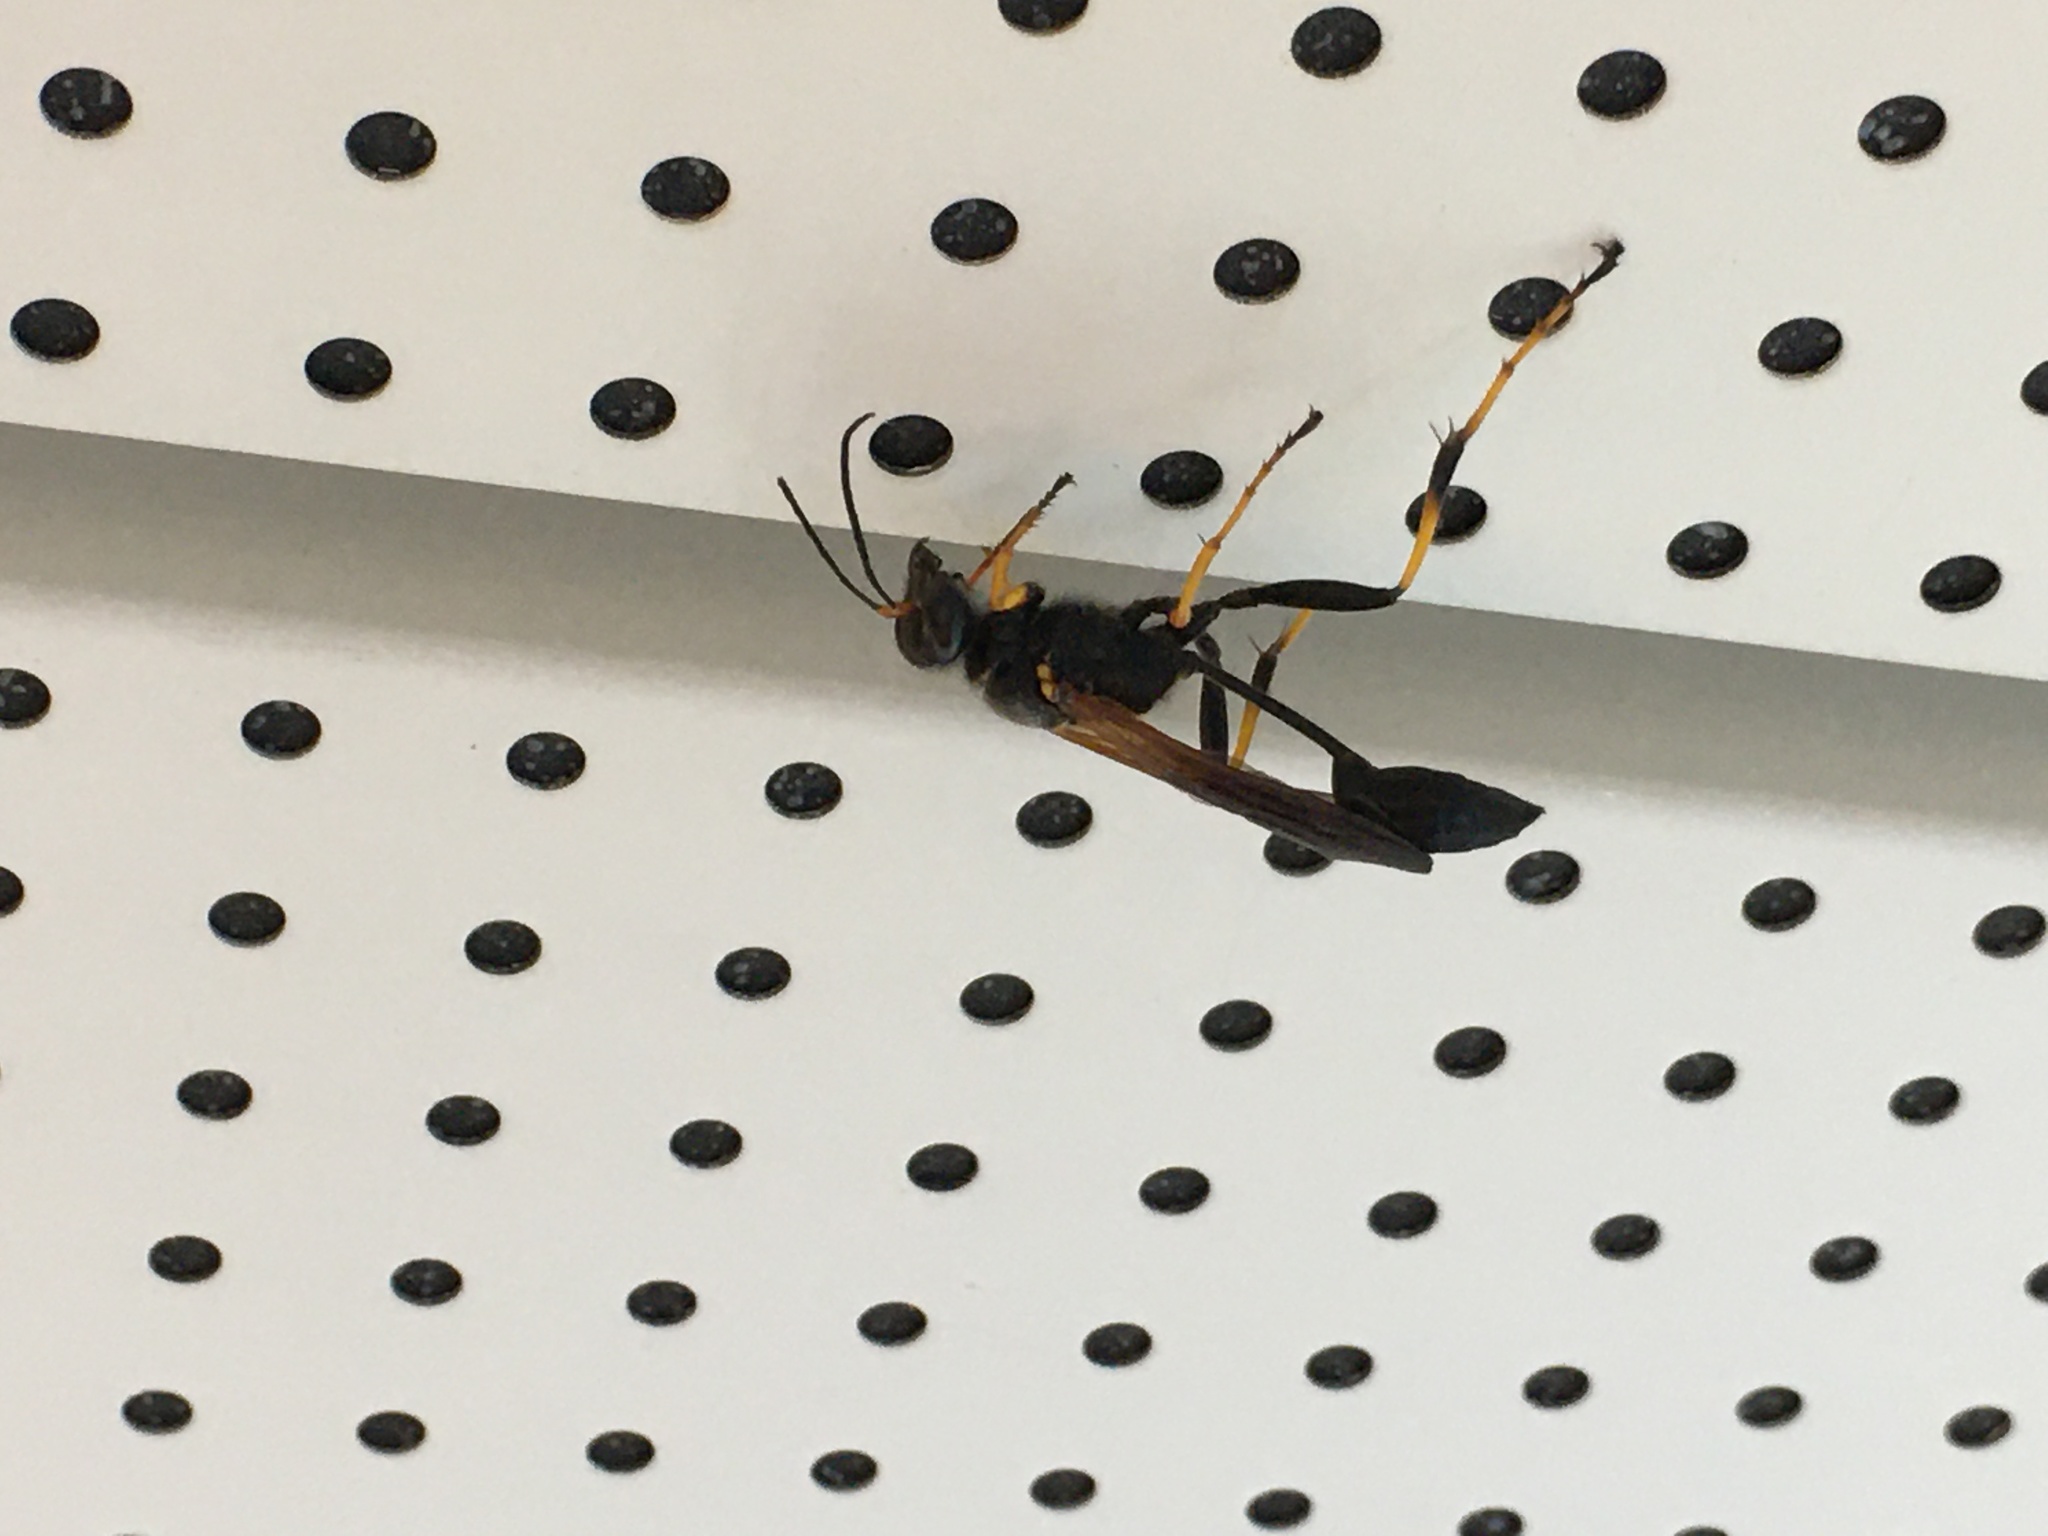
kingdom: Animalia
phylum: Arthropoda
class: Insecta
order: Hymenoptera
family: Sphecidae
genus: Sceliphron
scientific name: Sceliphron caementarium
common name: Mud dauber
